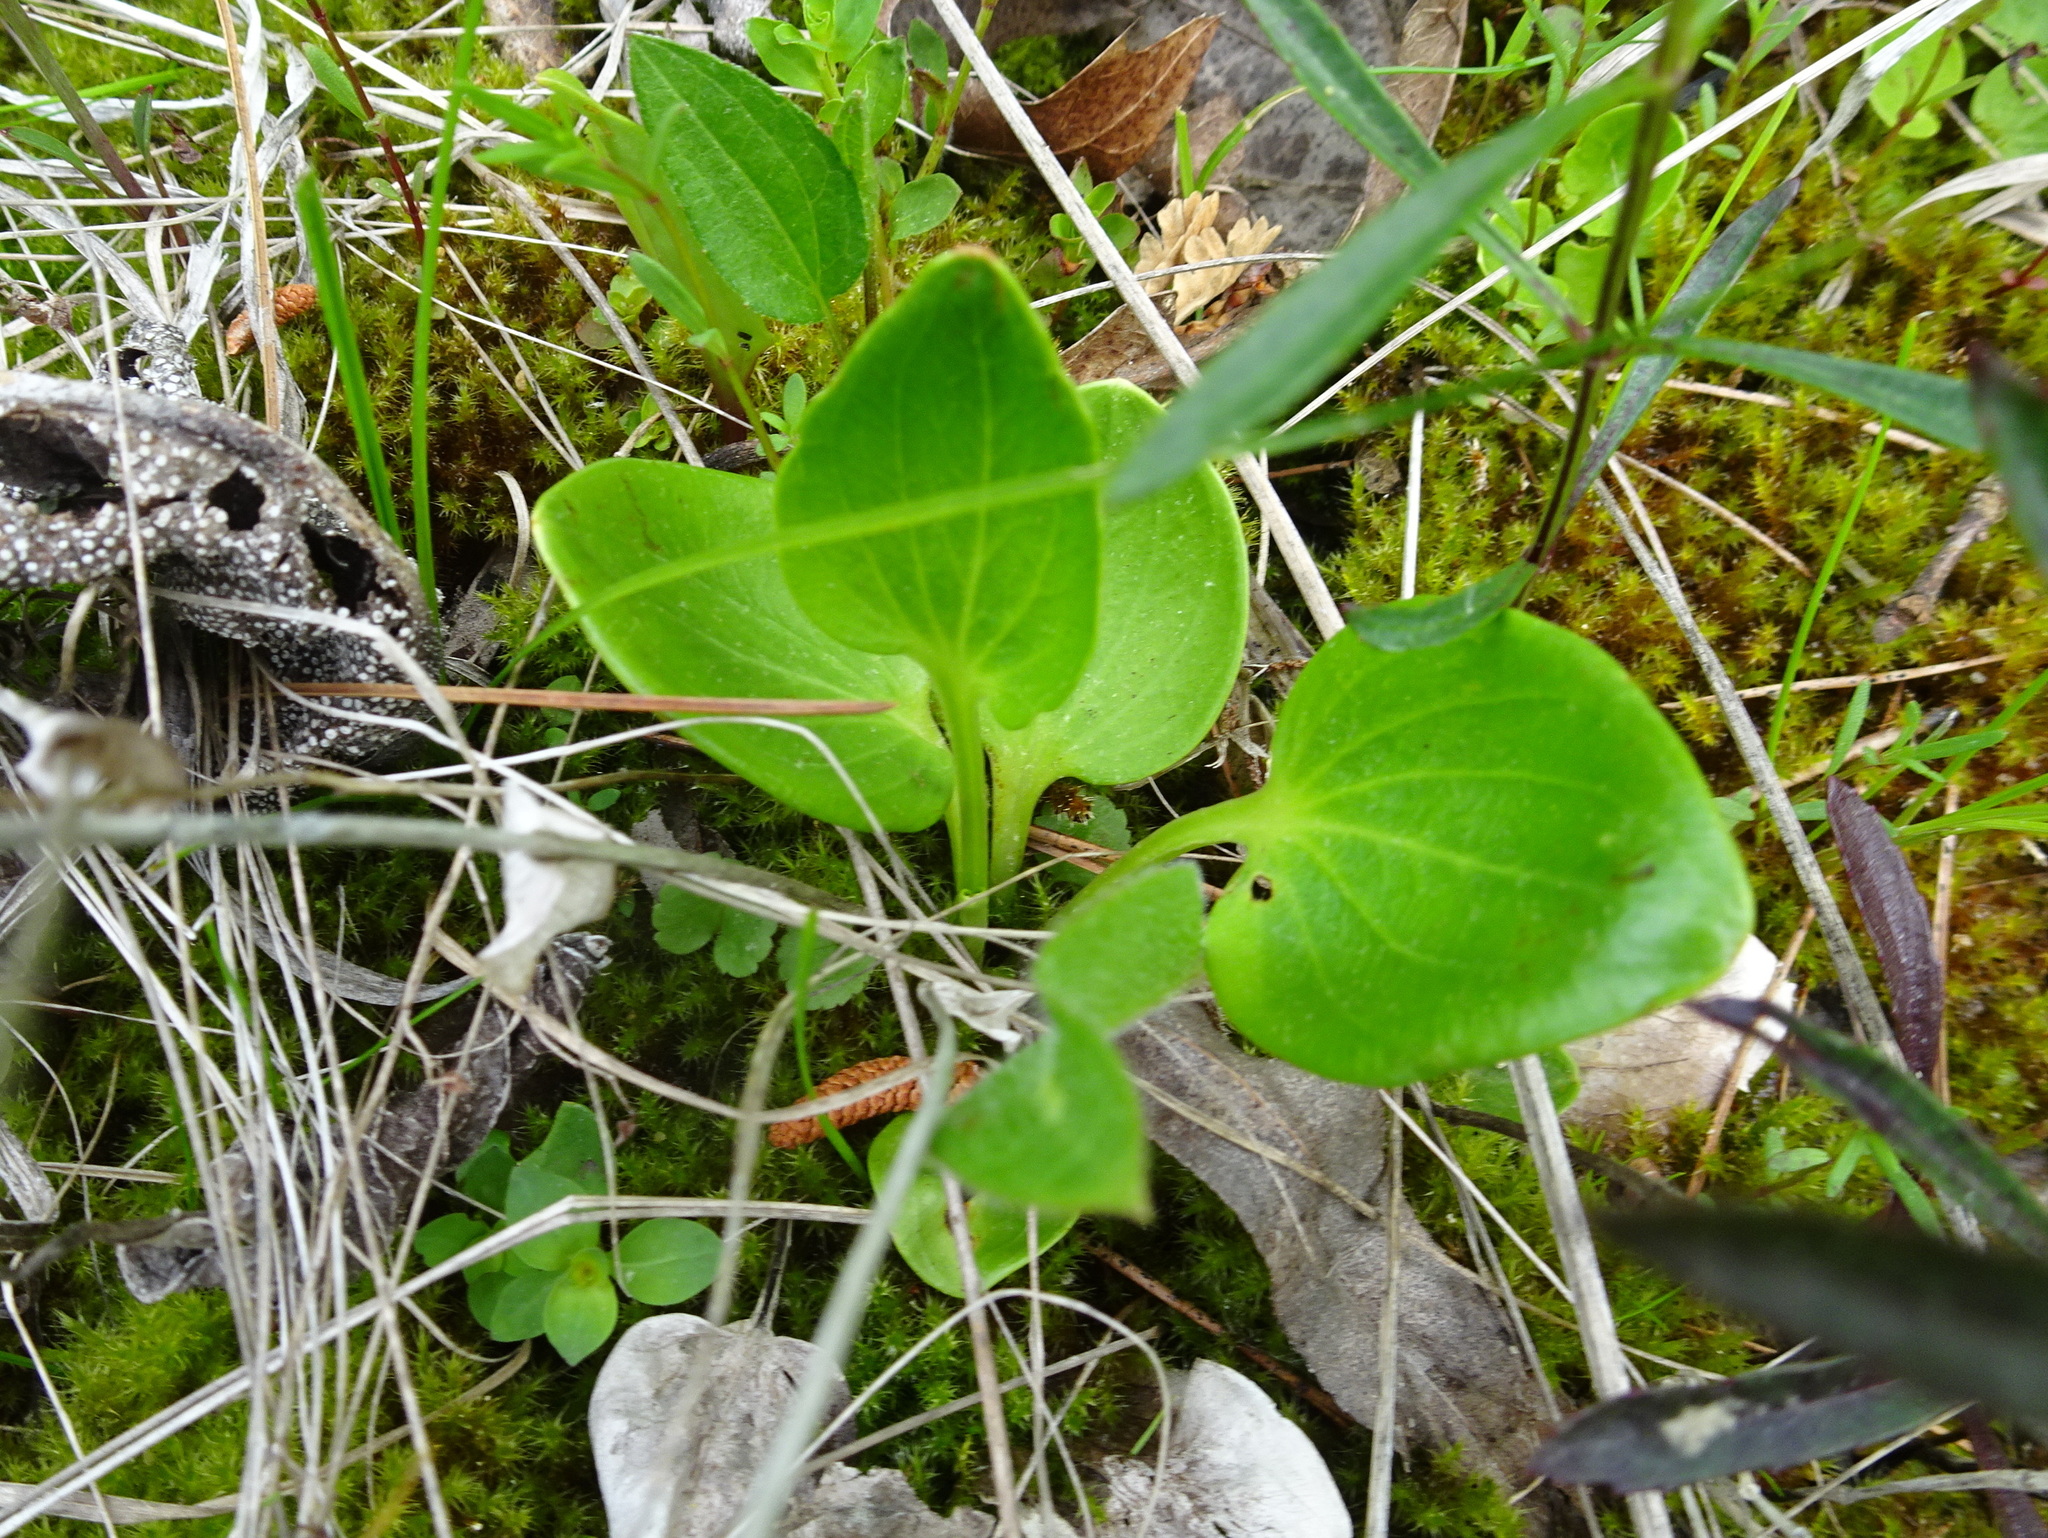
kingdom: Plantae
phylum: Tracheophyta
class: Magnoliopsida
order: Celastrales
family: Parnassiaceae
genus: Parnassia
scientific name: Parnassia grandifolia
